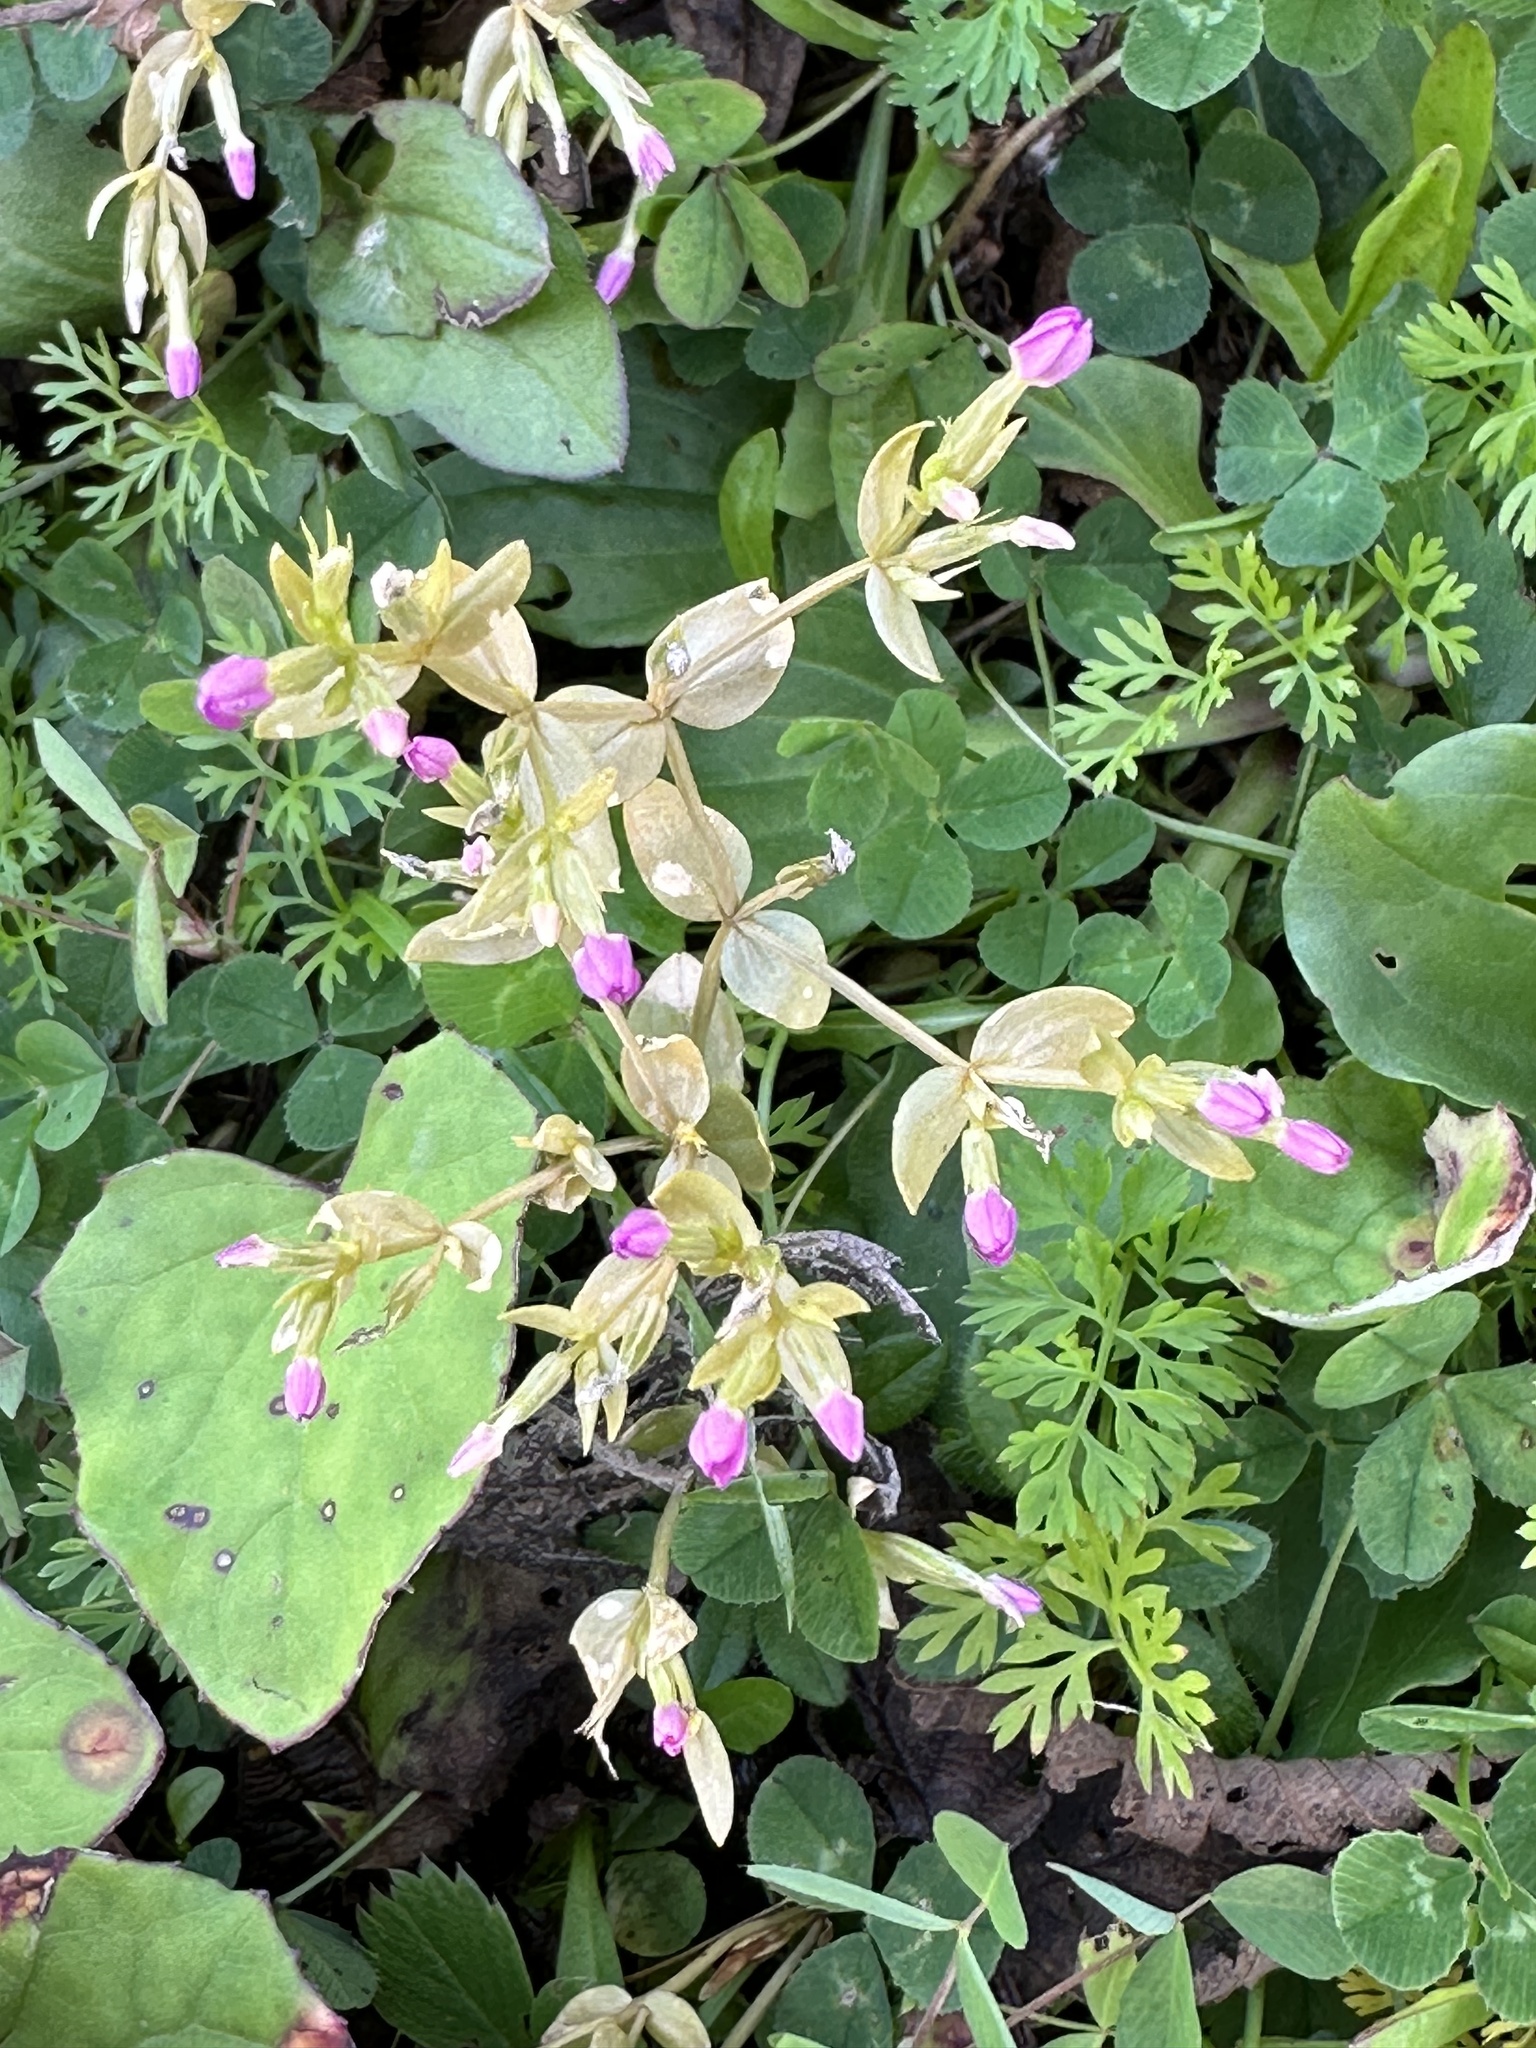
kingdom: Plantae
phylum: Tracheophyta
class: Magnoliopsida
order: Gentianales
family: Gentianaceae
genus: Centaurium
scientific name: Centaurium pulchellum
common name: Lesser centaury
